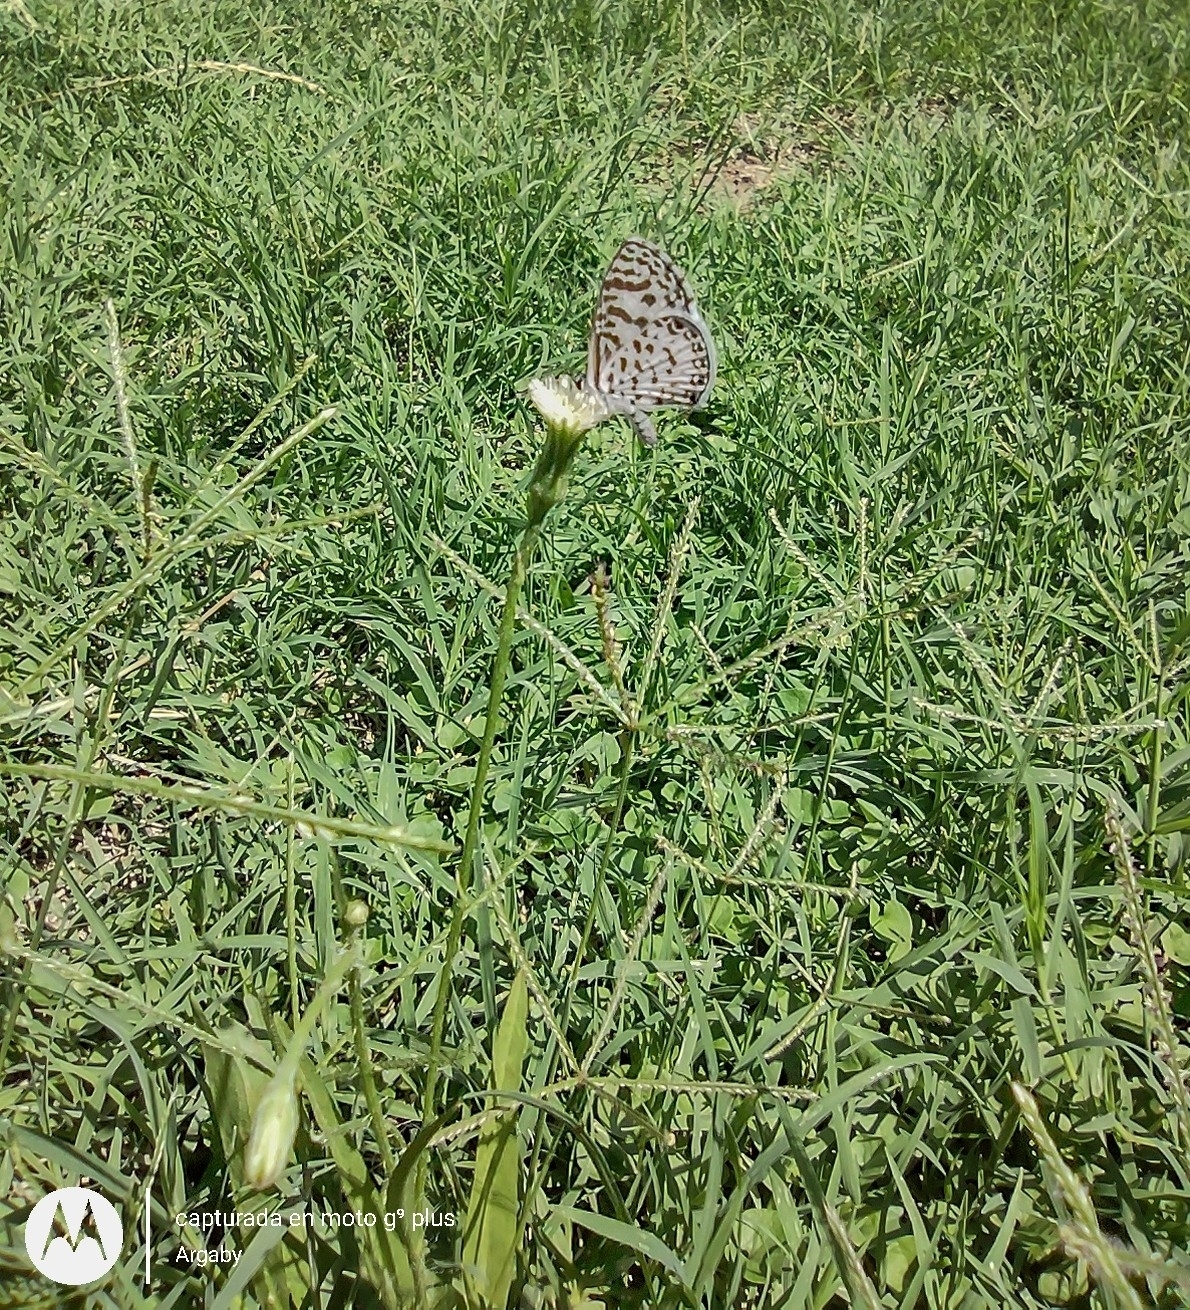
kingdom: Animalia
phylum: Arthropoda
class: Insecta
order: Lepidoptera
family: Lycaenidae
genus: Leptotes
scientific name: Leptotes cassius
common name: Cassius blue
